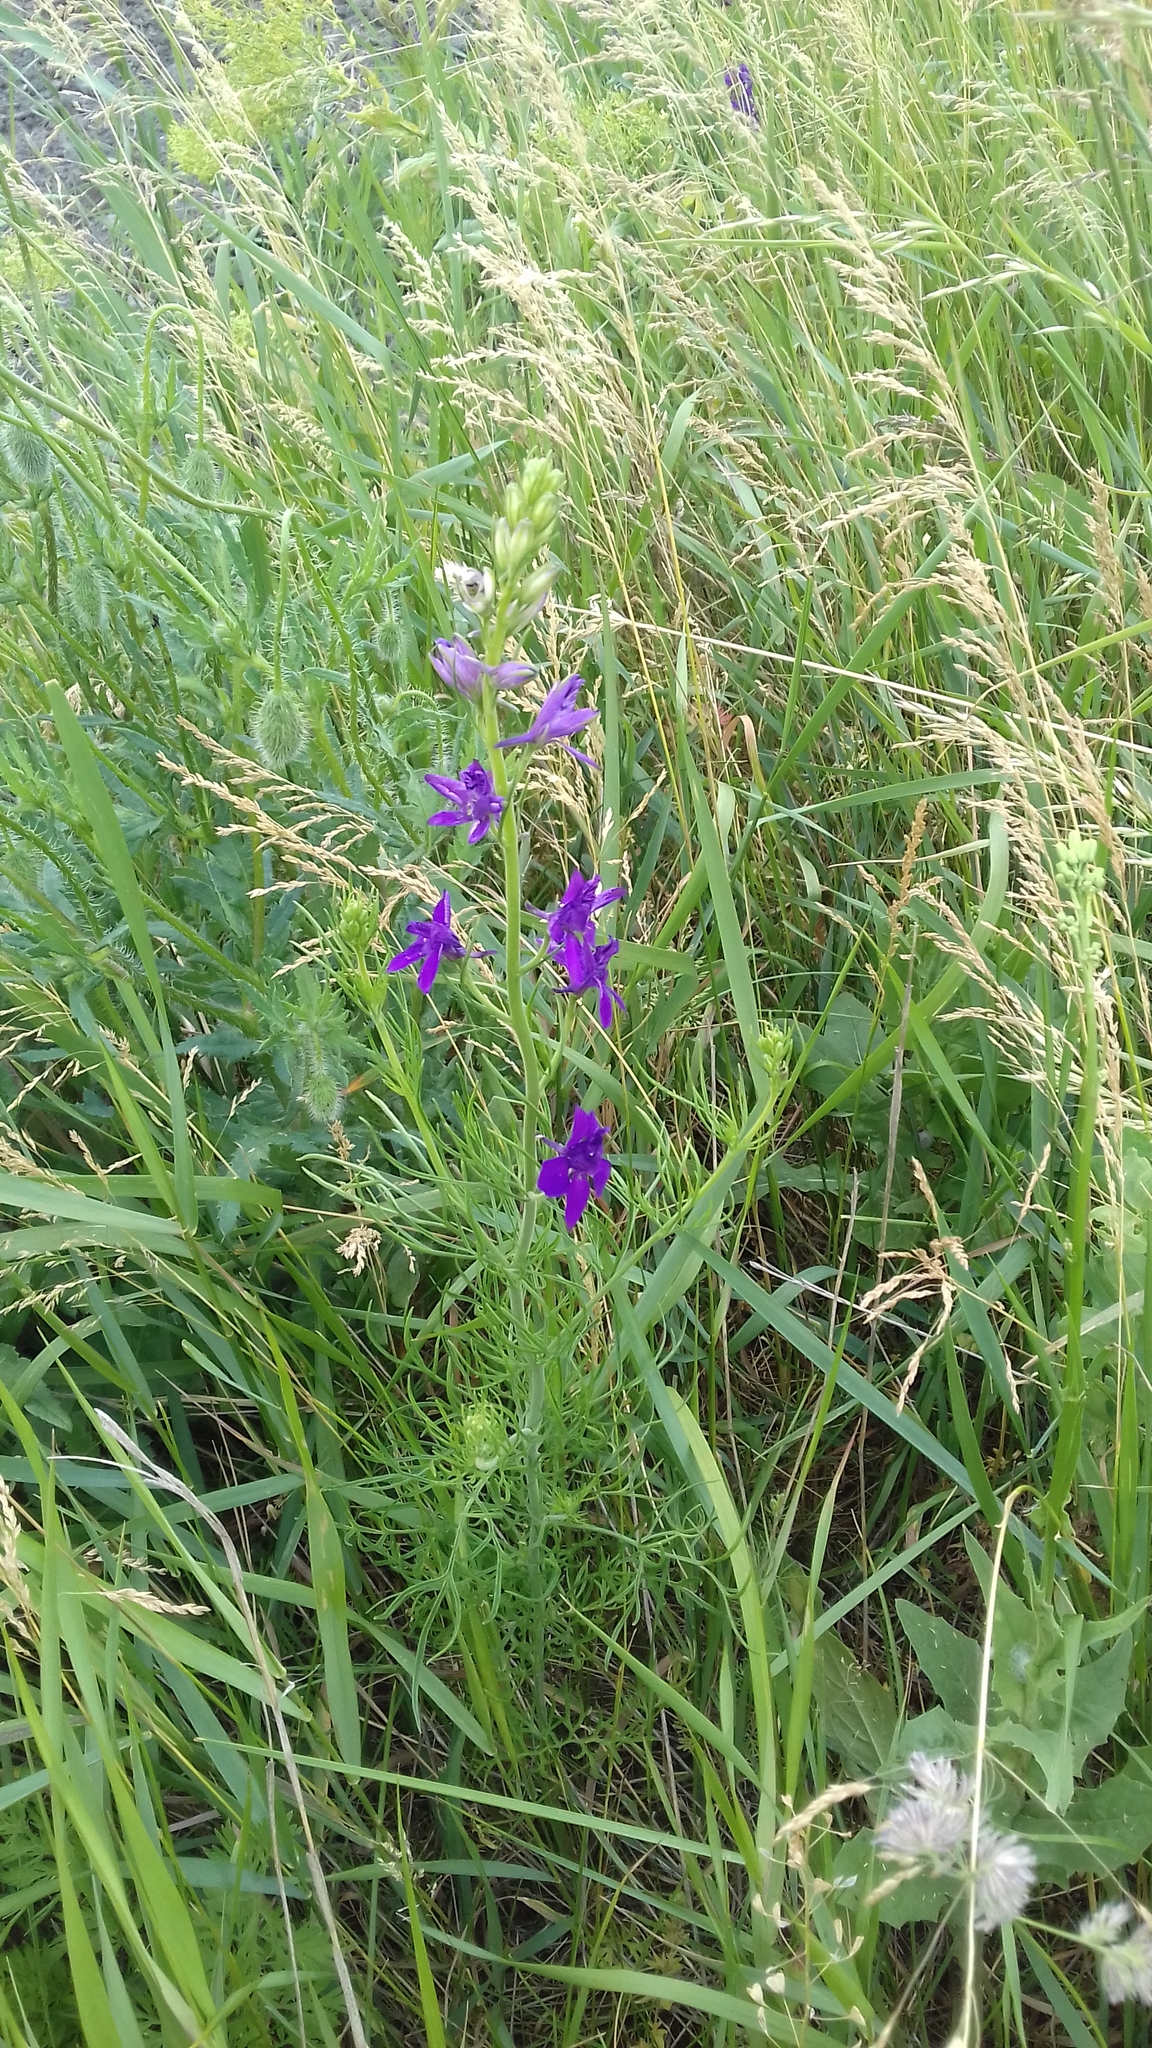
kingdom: Plantae
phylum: Tracheophyta
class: Magnoliopsida
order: Ranunculales
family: Ranunculaceae
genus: Delphinium
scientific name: Delphinium ajacis
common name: Doubtful knight's-spur
